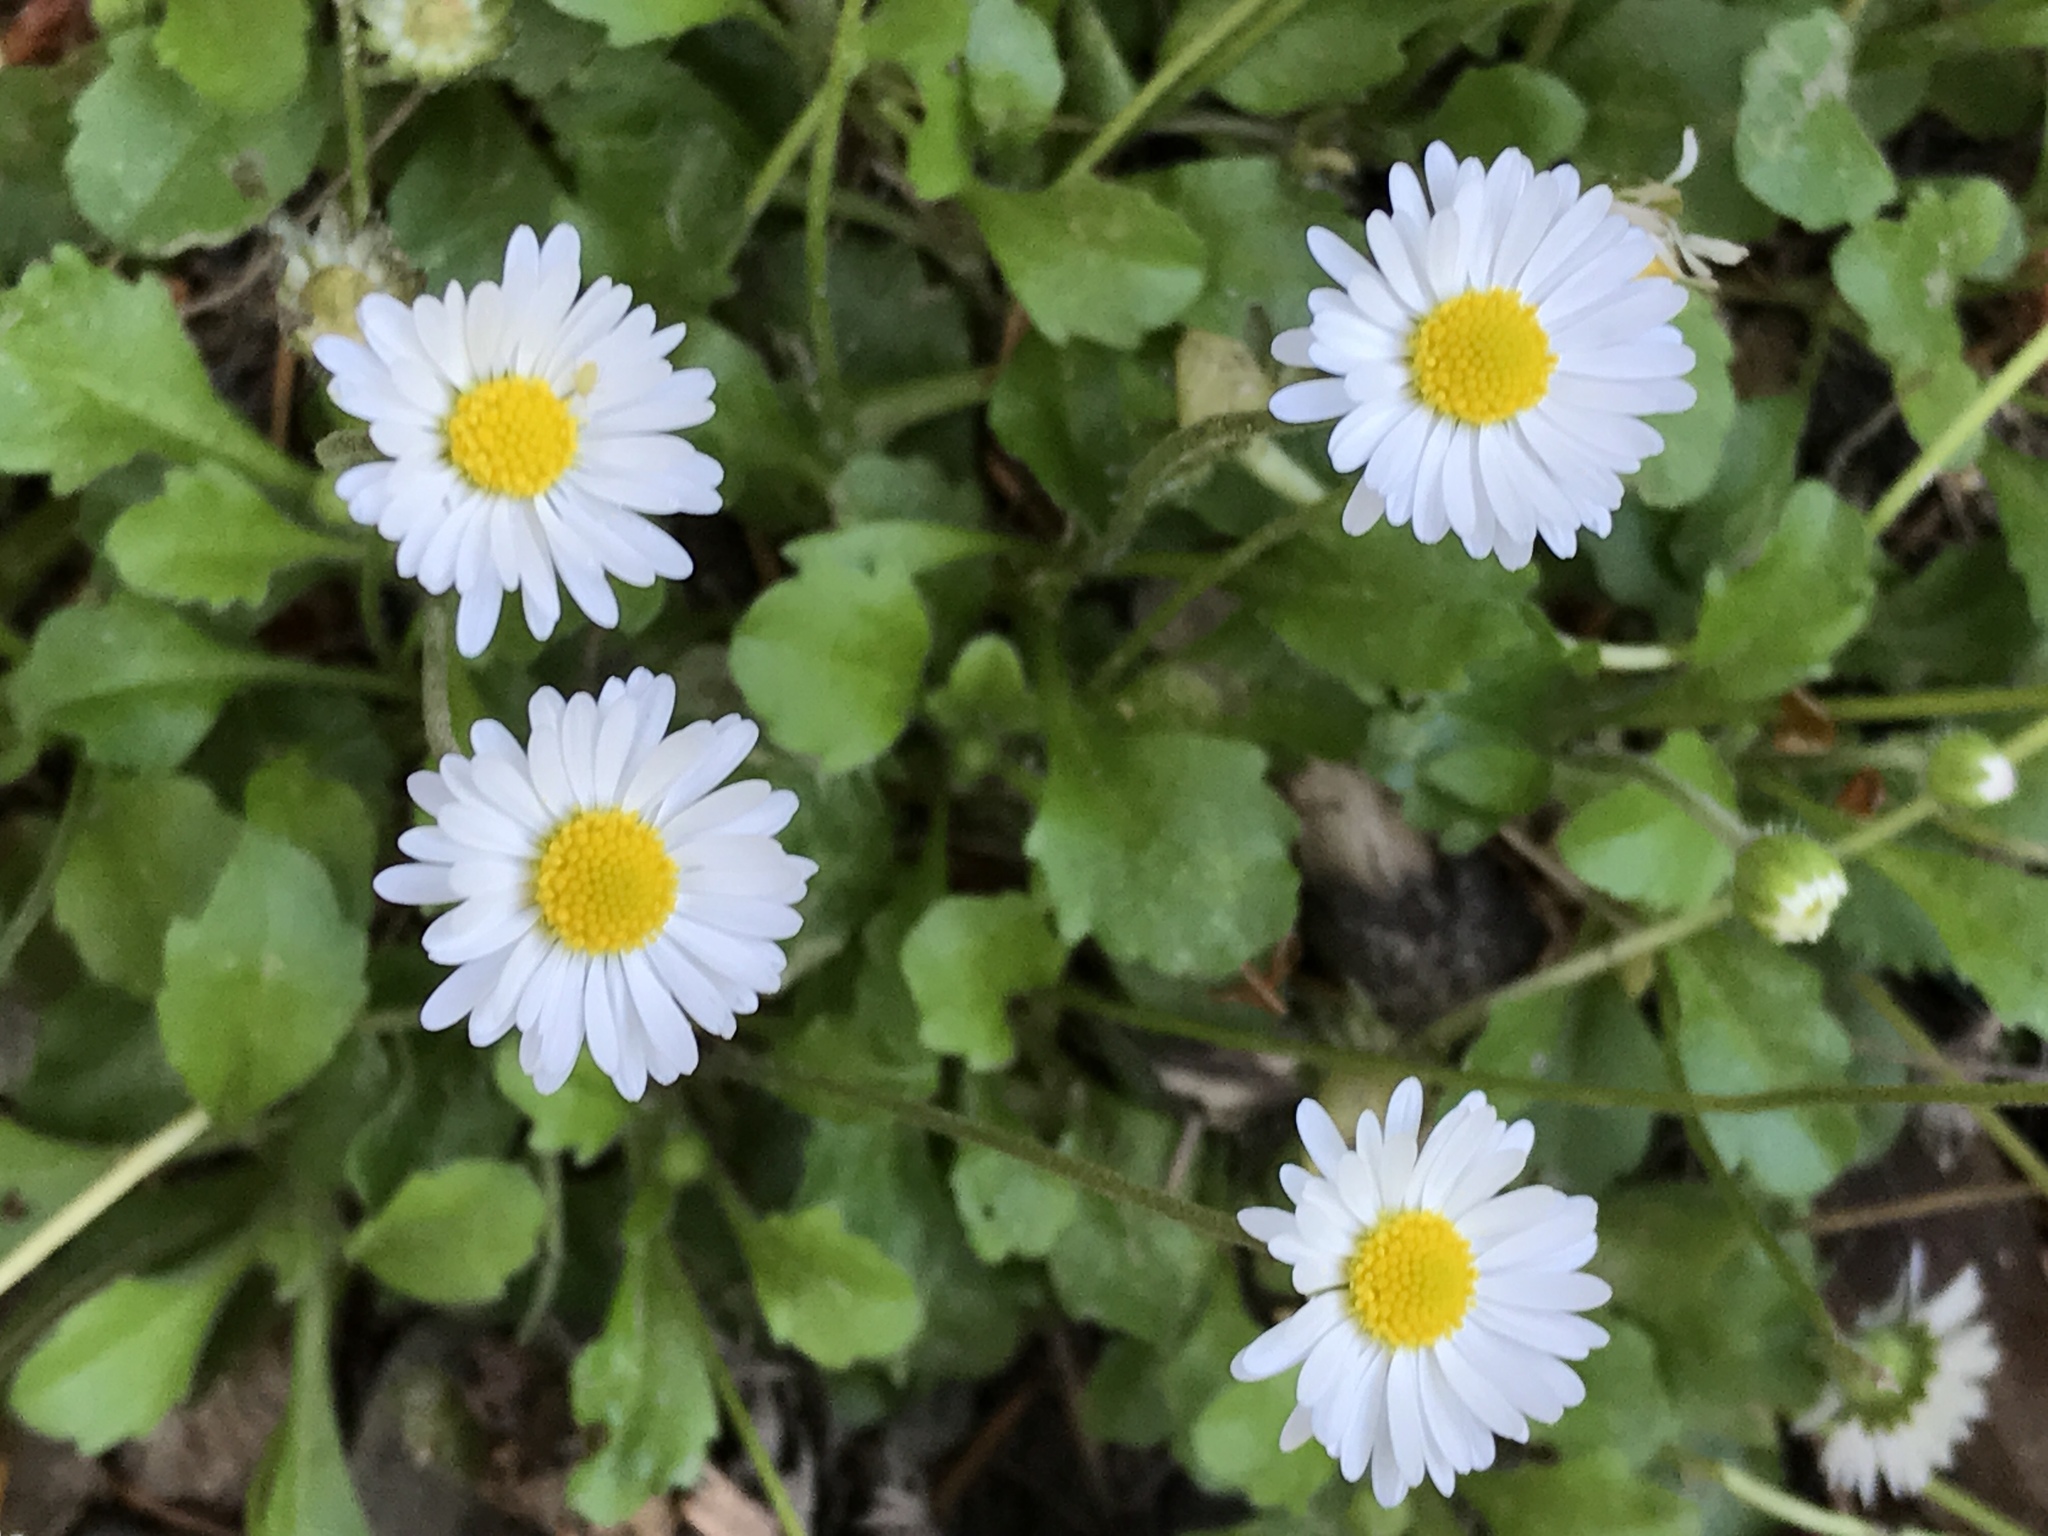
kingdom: Plantae
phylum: Tracheophyta
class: Magnoliopsida
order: Asterales
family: Asteraceae
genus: Bellis
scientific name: Bellis perennis
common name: Lawndaisy
